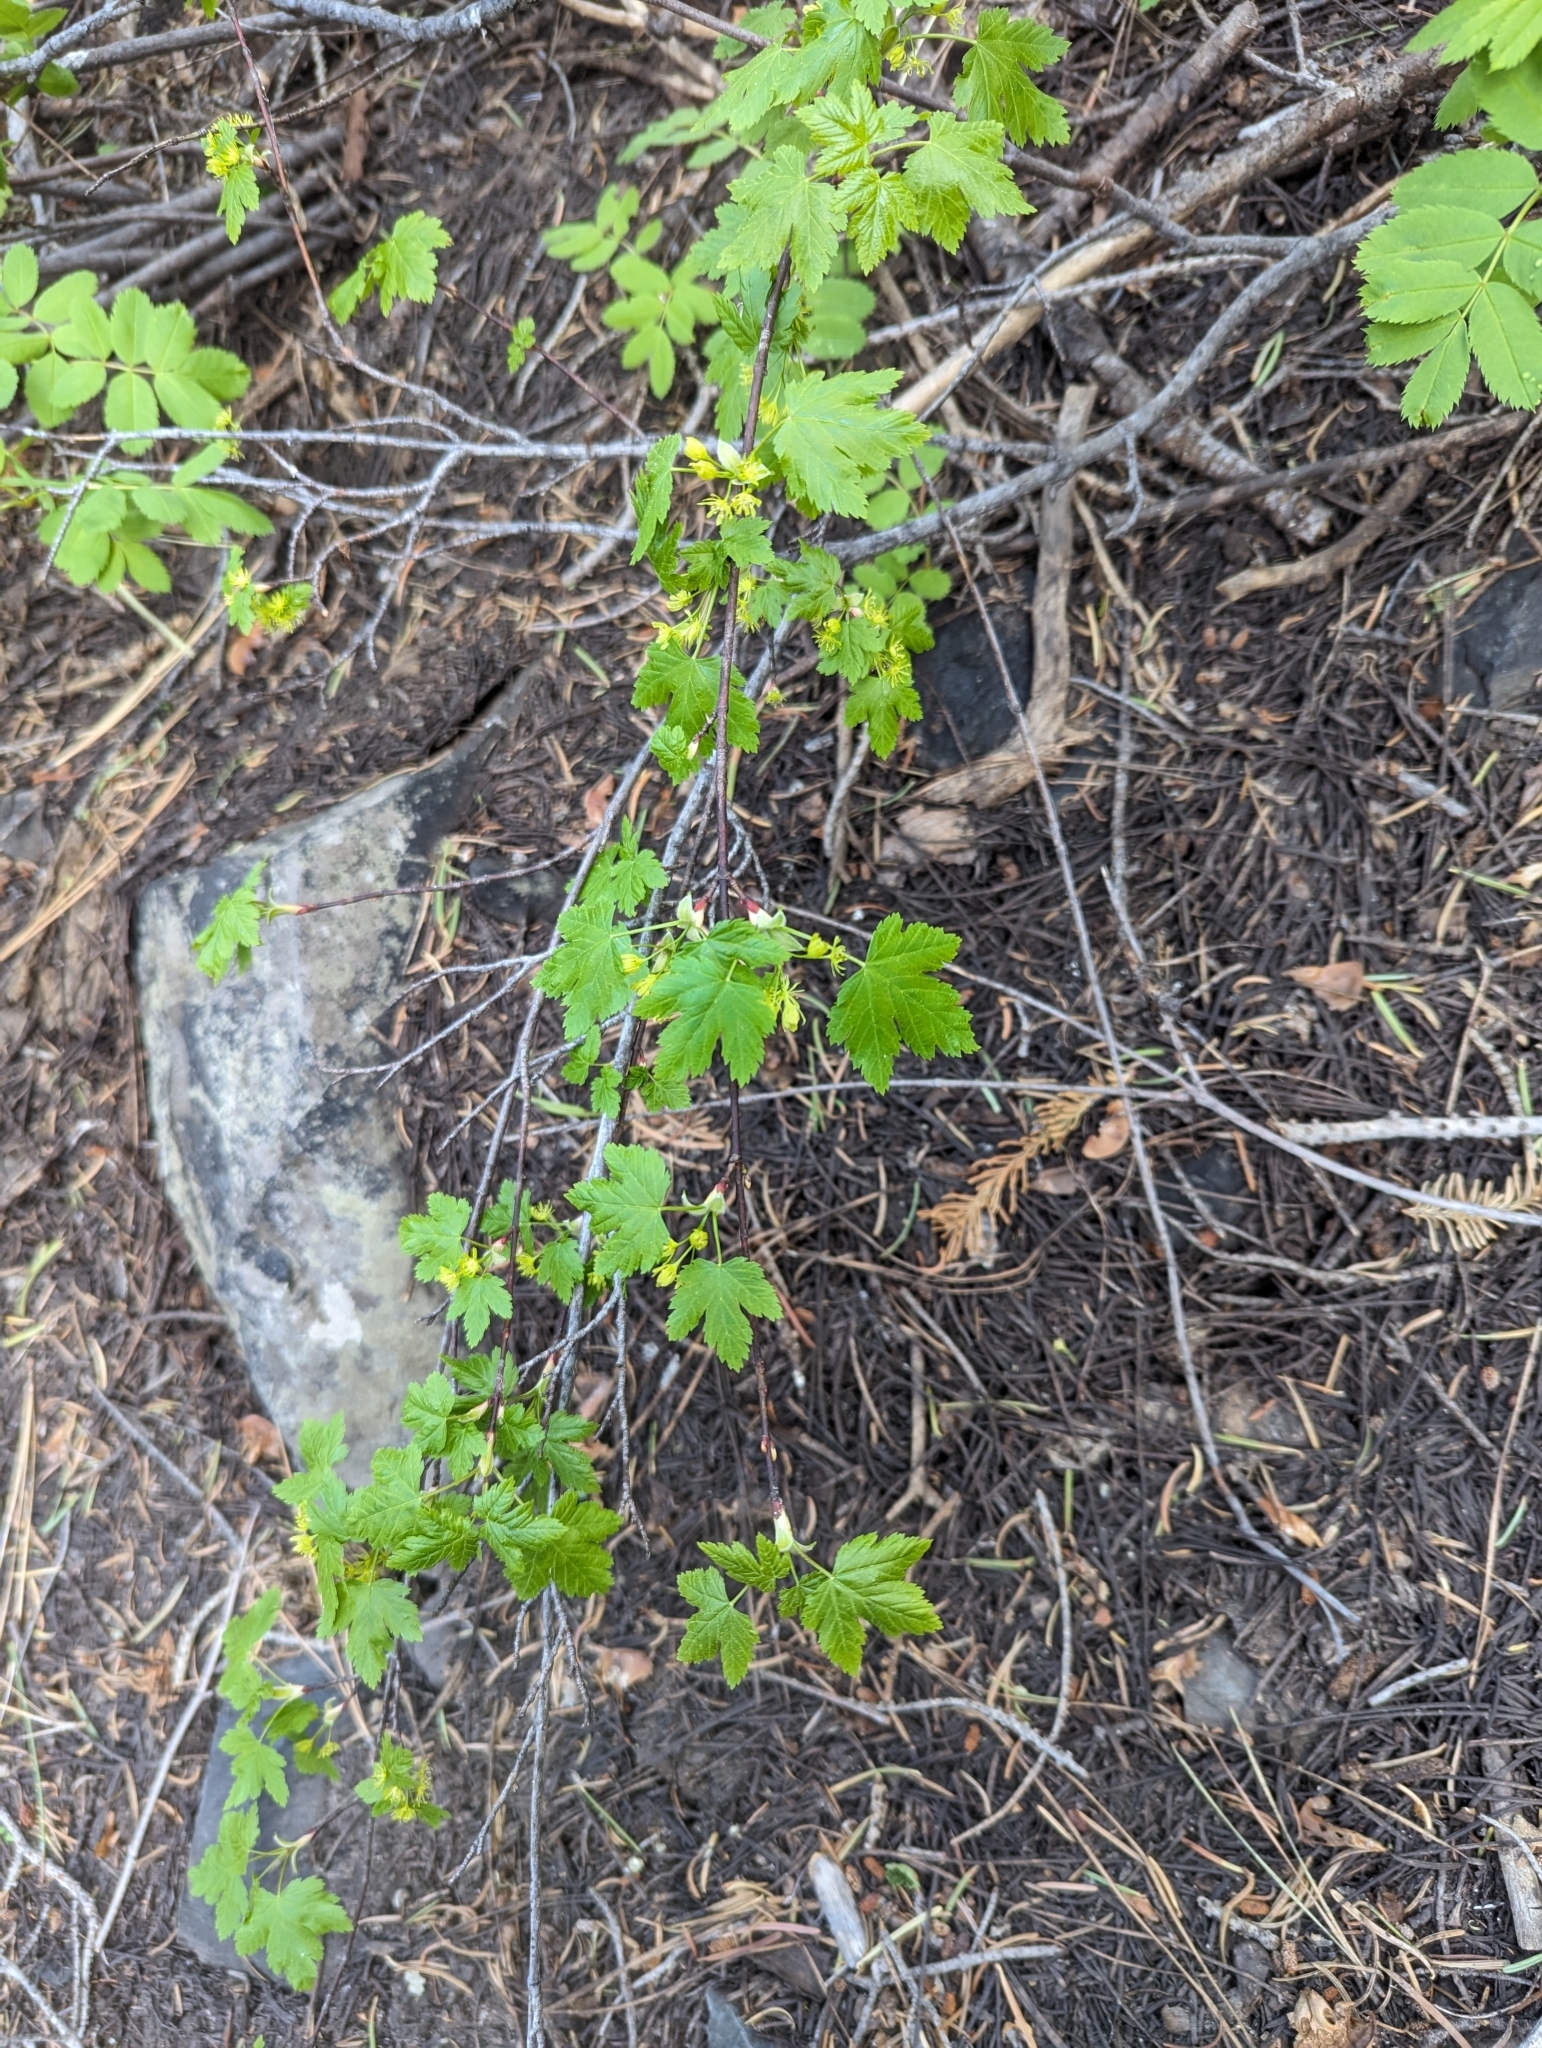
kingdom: Plantae
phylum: Tracheophyta
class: Magnoliopsida
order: Sapindales
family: Sapindaceae
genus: Acer
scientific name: Acer glabrum
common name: Rocky mountain maple
